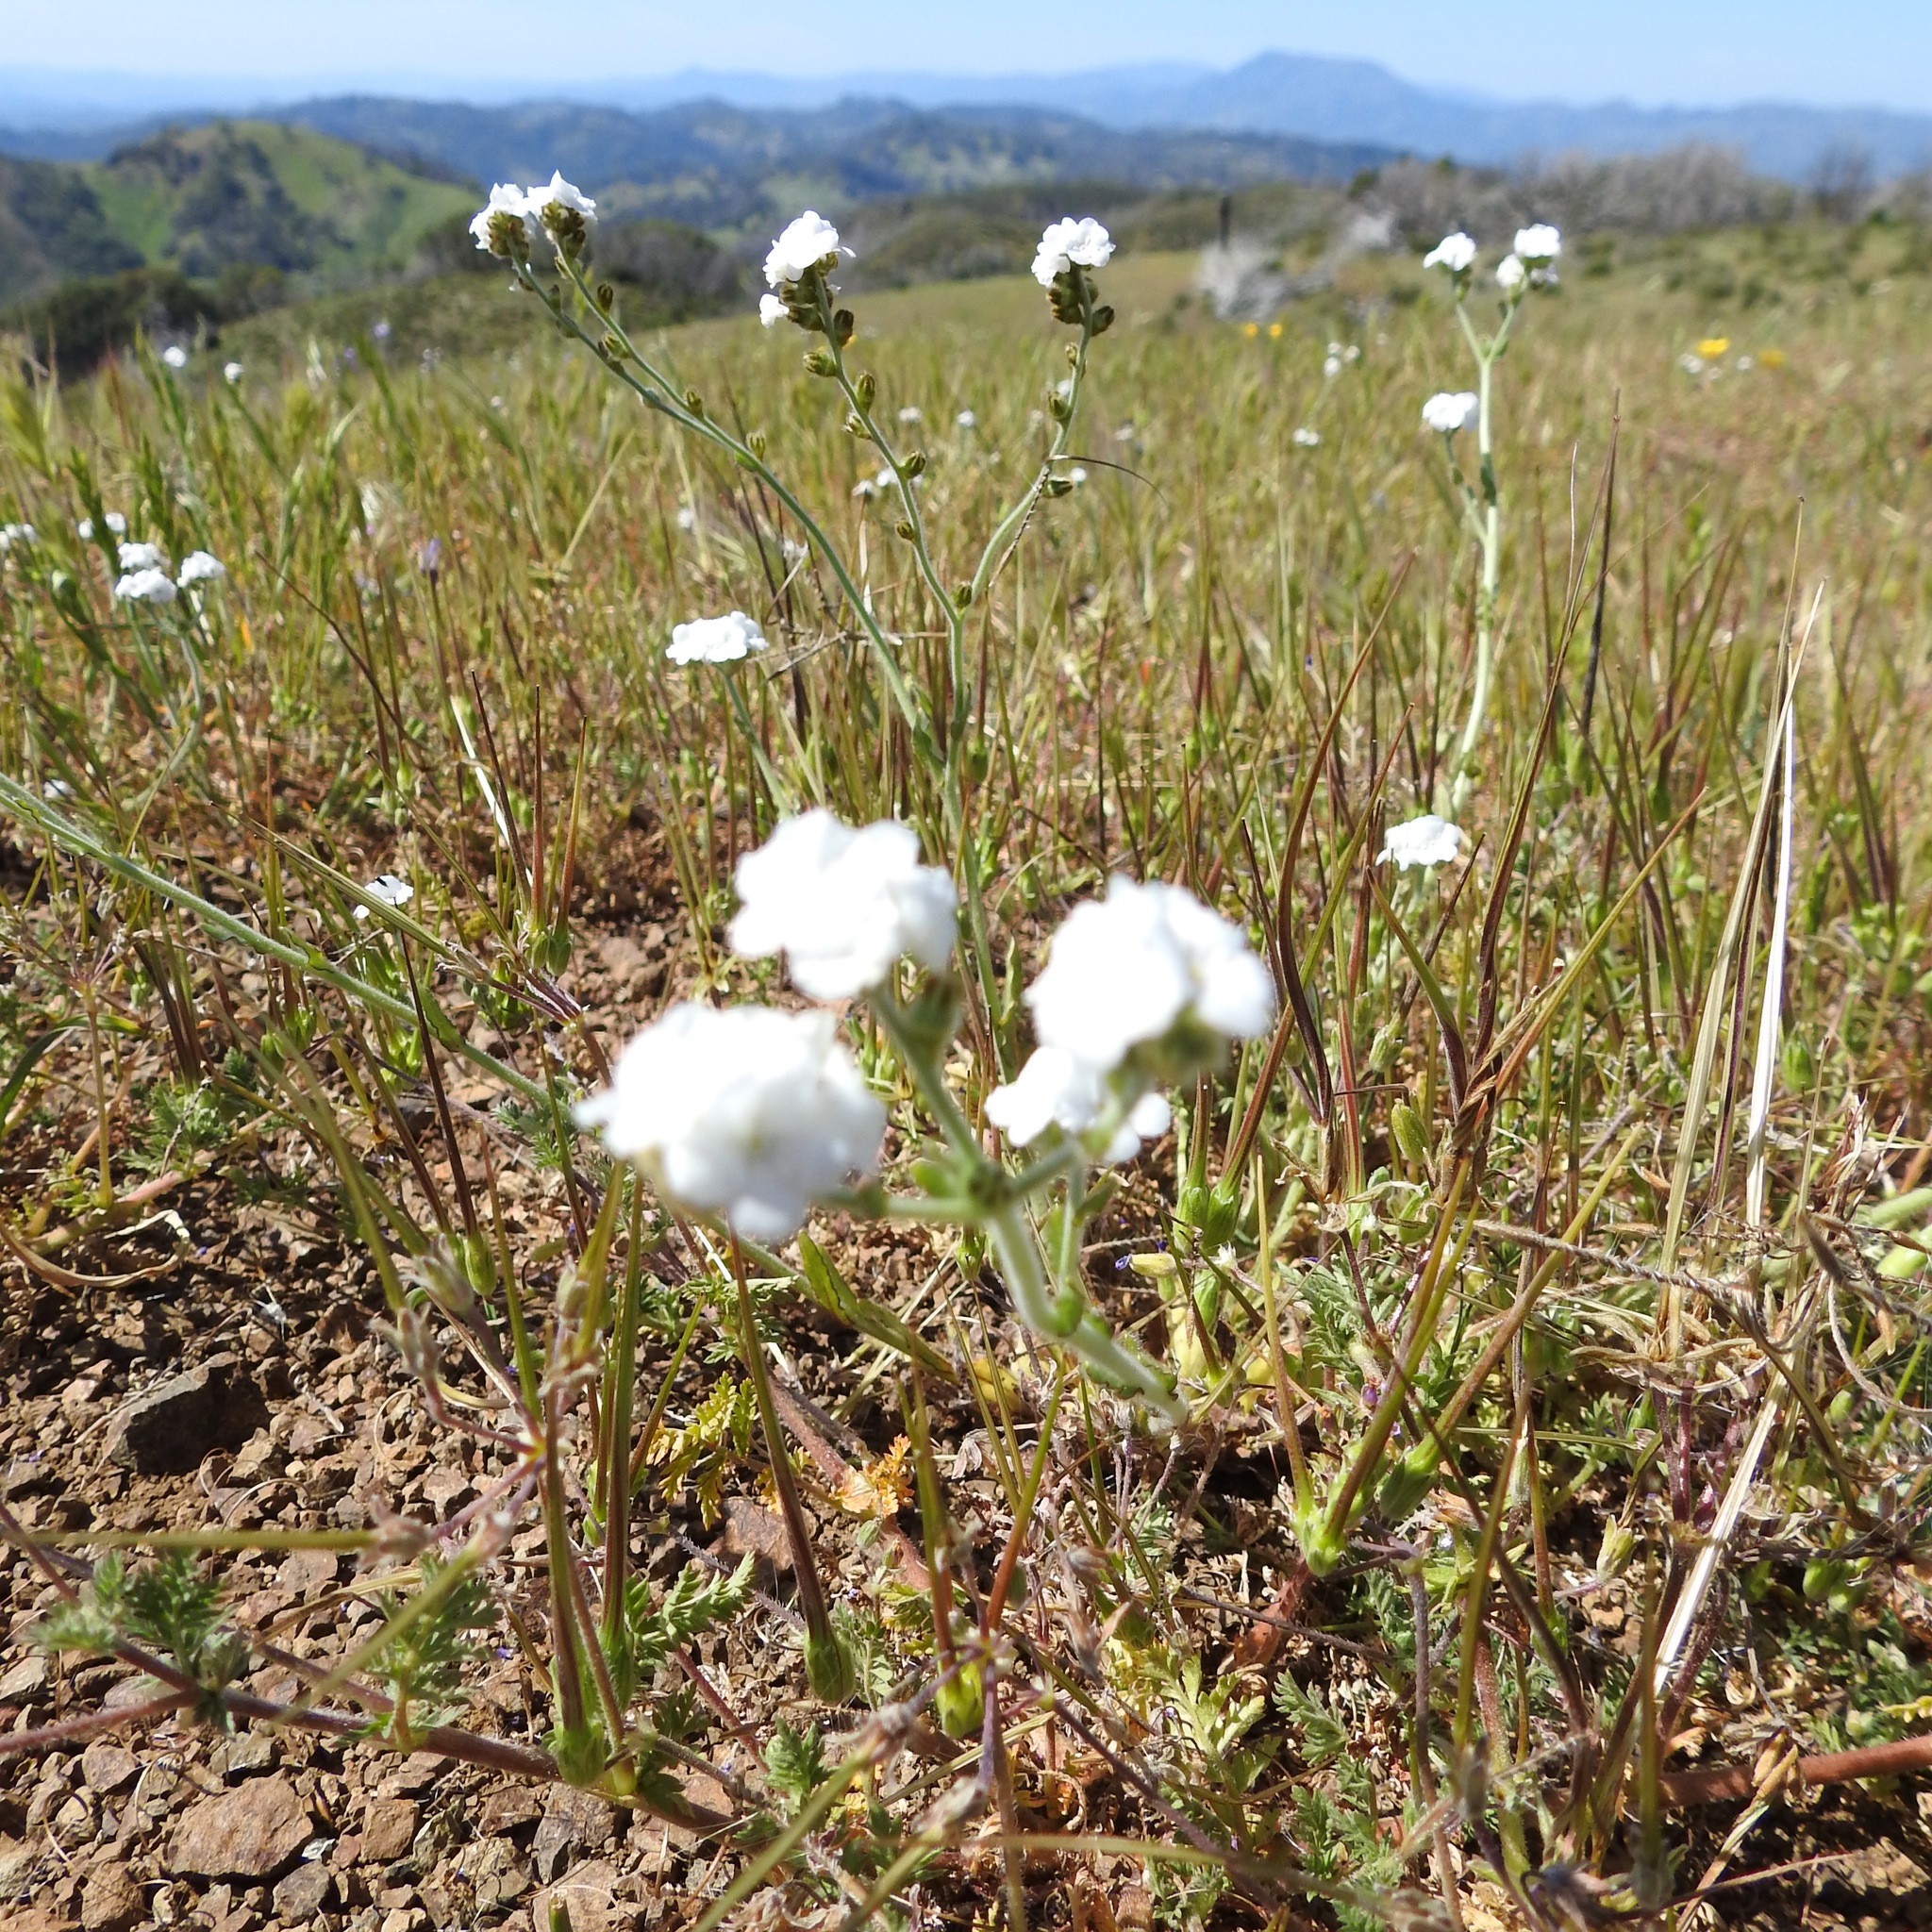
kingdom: Plantae
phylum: Tracheophyta
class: Magnoliopsida
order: Boraginales
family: Boraginaceae
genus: Plagiobothrys
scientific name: Plagiobothrys nothofulvus
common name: Popcorn-flower
